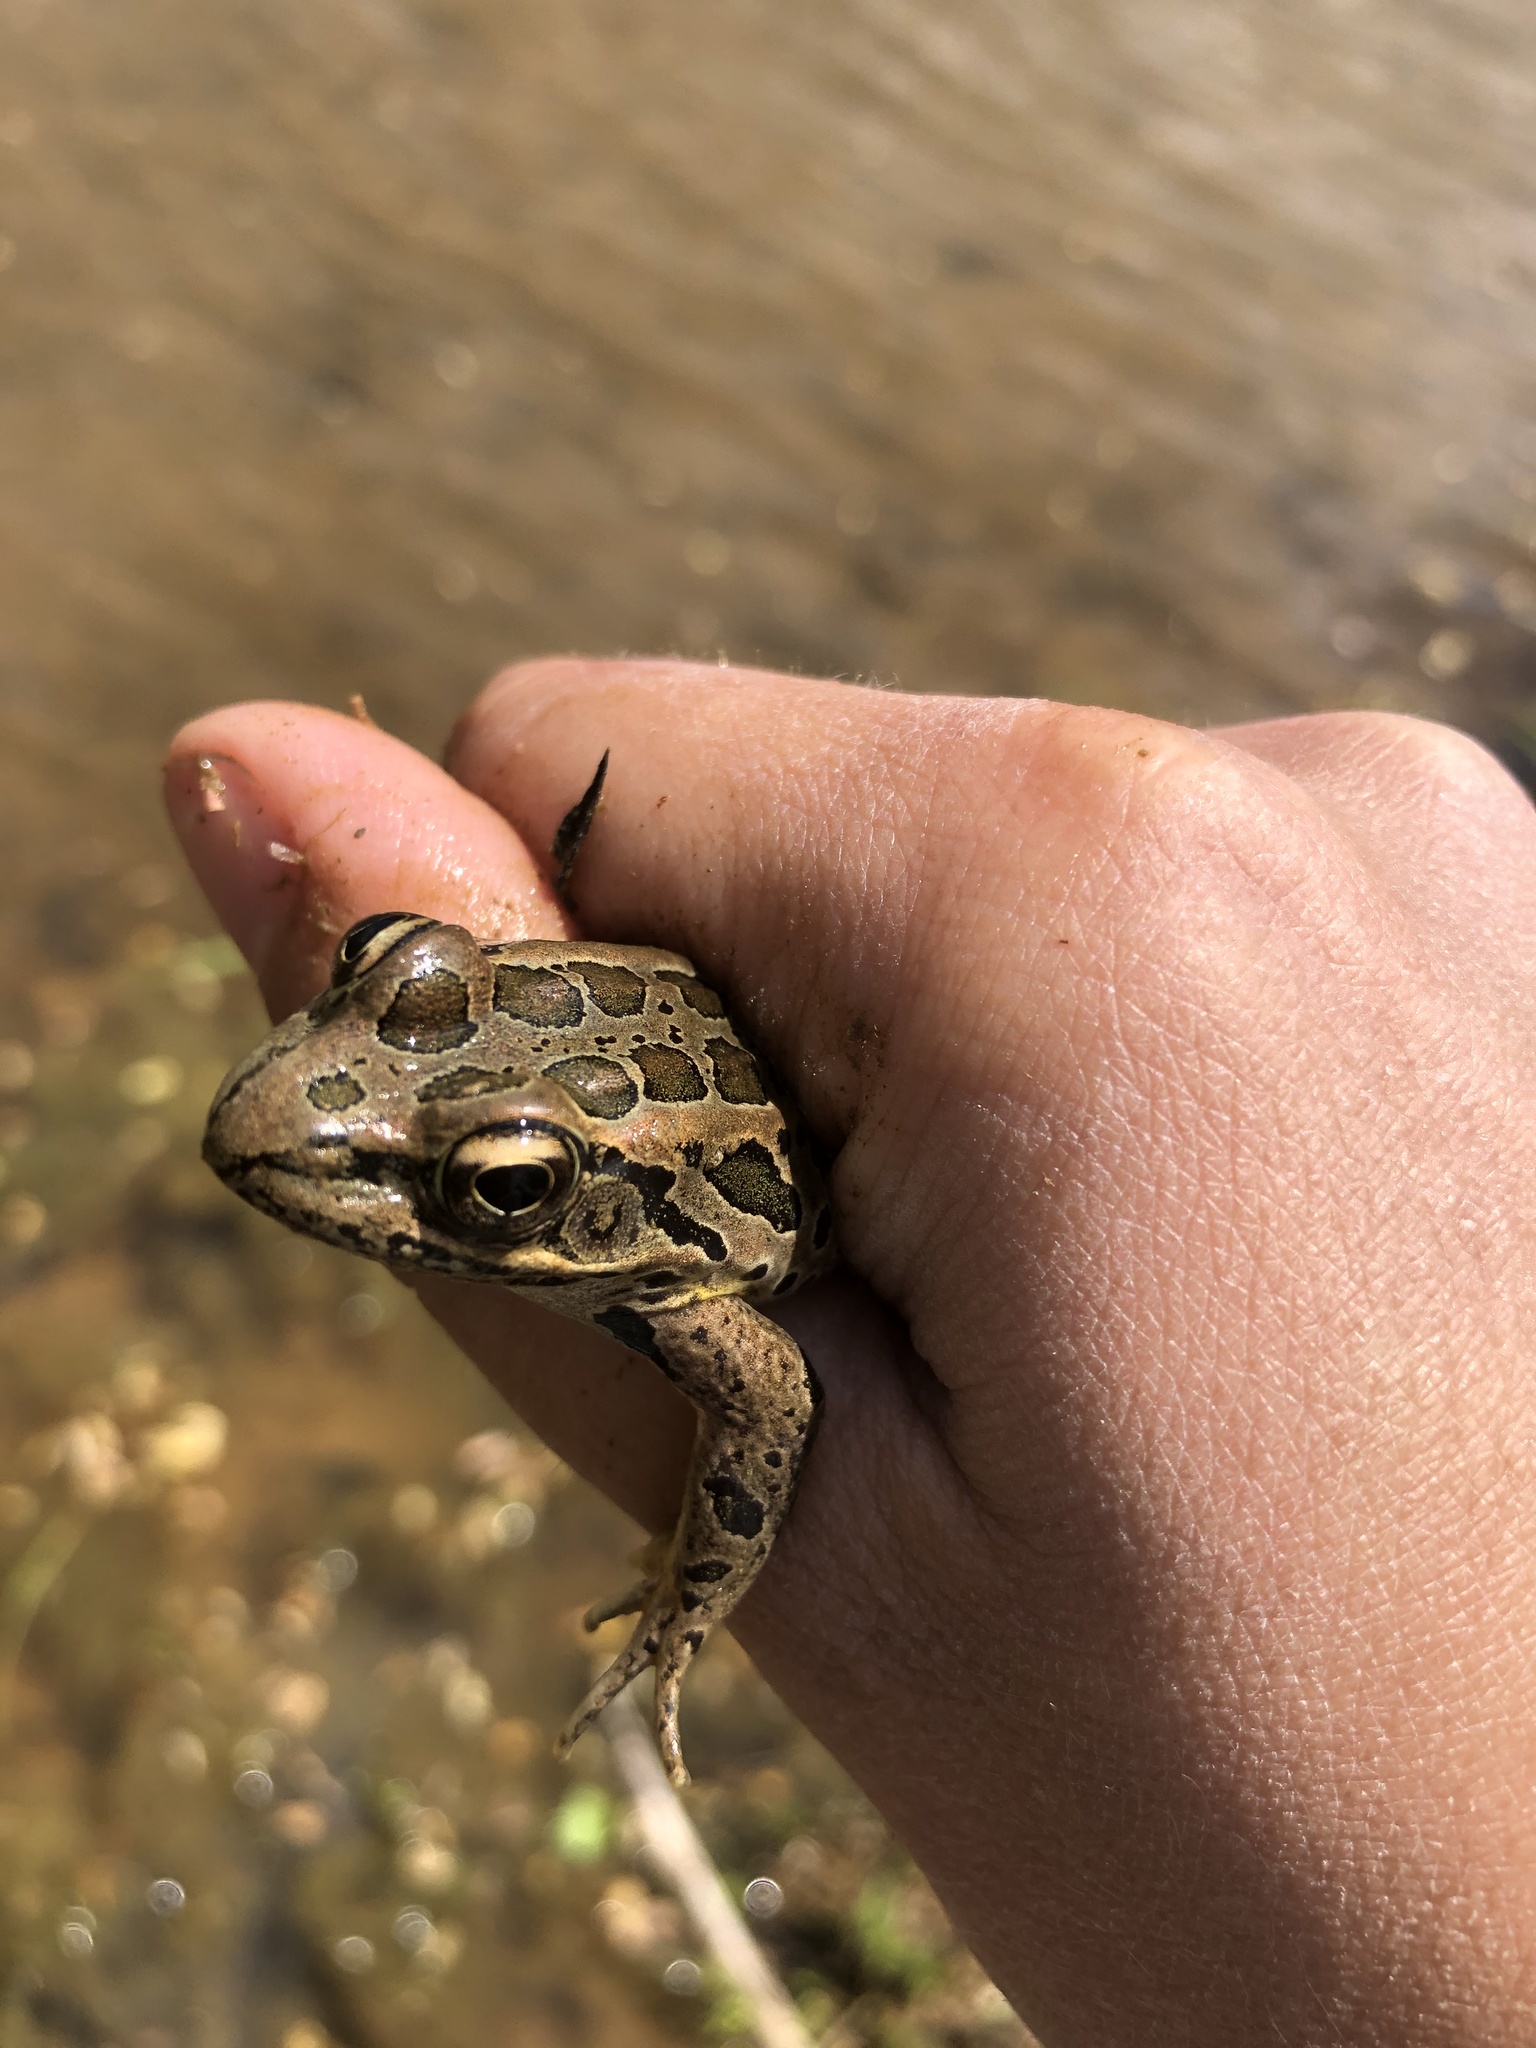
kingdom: Animalia
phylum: Chordata
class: Amphibia
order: Anura
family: Ranidae
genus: Lithobates
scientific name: Lithobates palustris
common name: Pickerel frog
